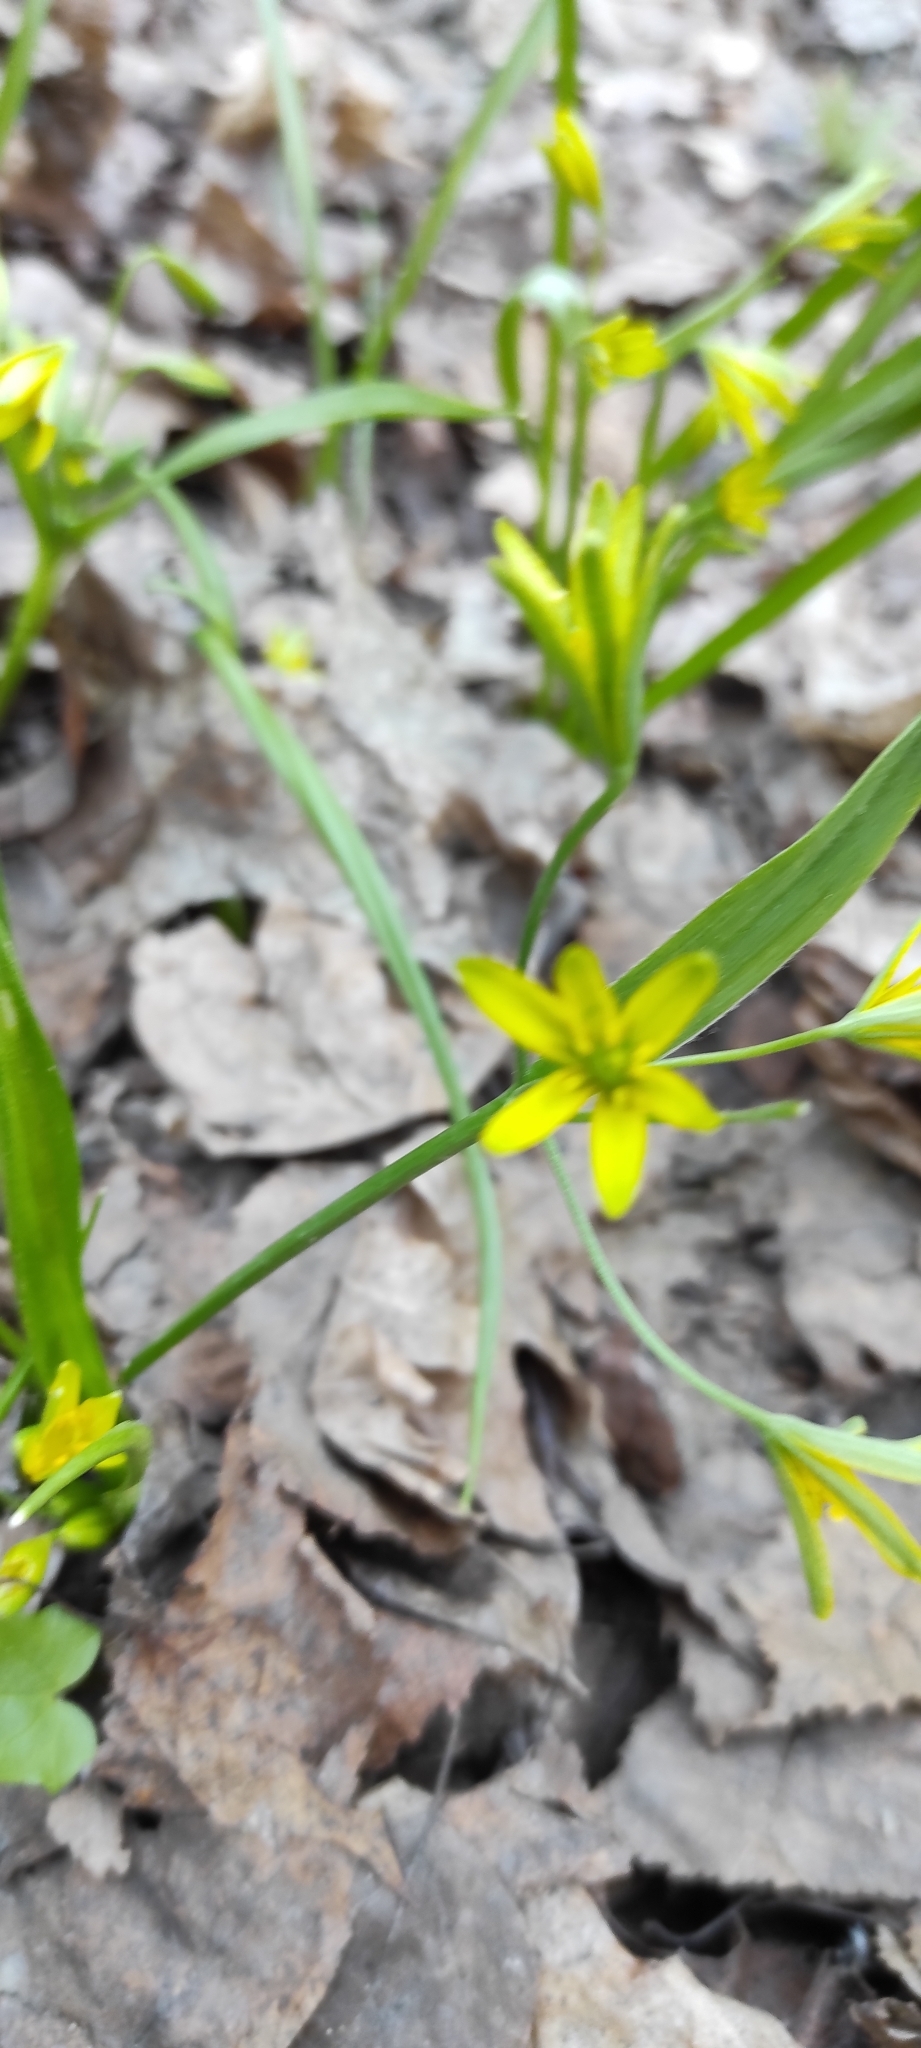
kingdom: Plantae
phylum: Tracheophyta
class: Liliopsida
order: Liliales
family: Liliaceae
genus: Gagea
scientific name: Gagea lutea
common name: Yellow star-of-bethlehem
